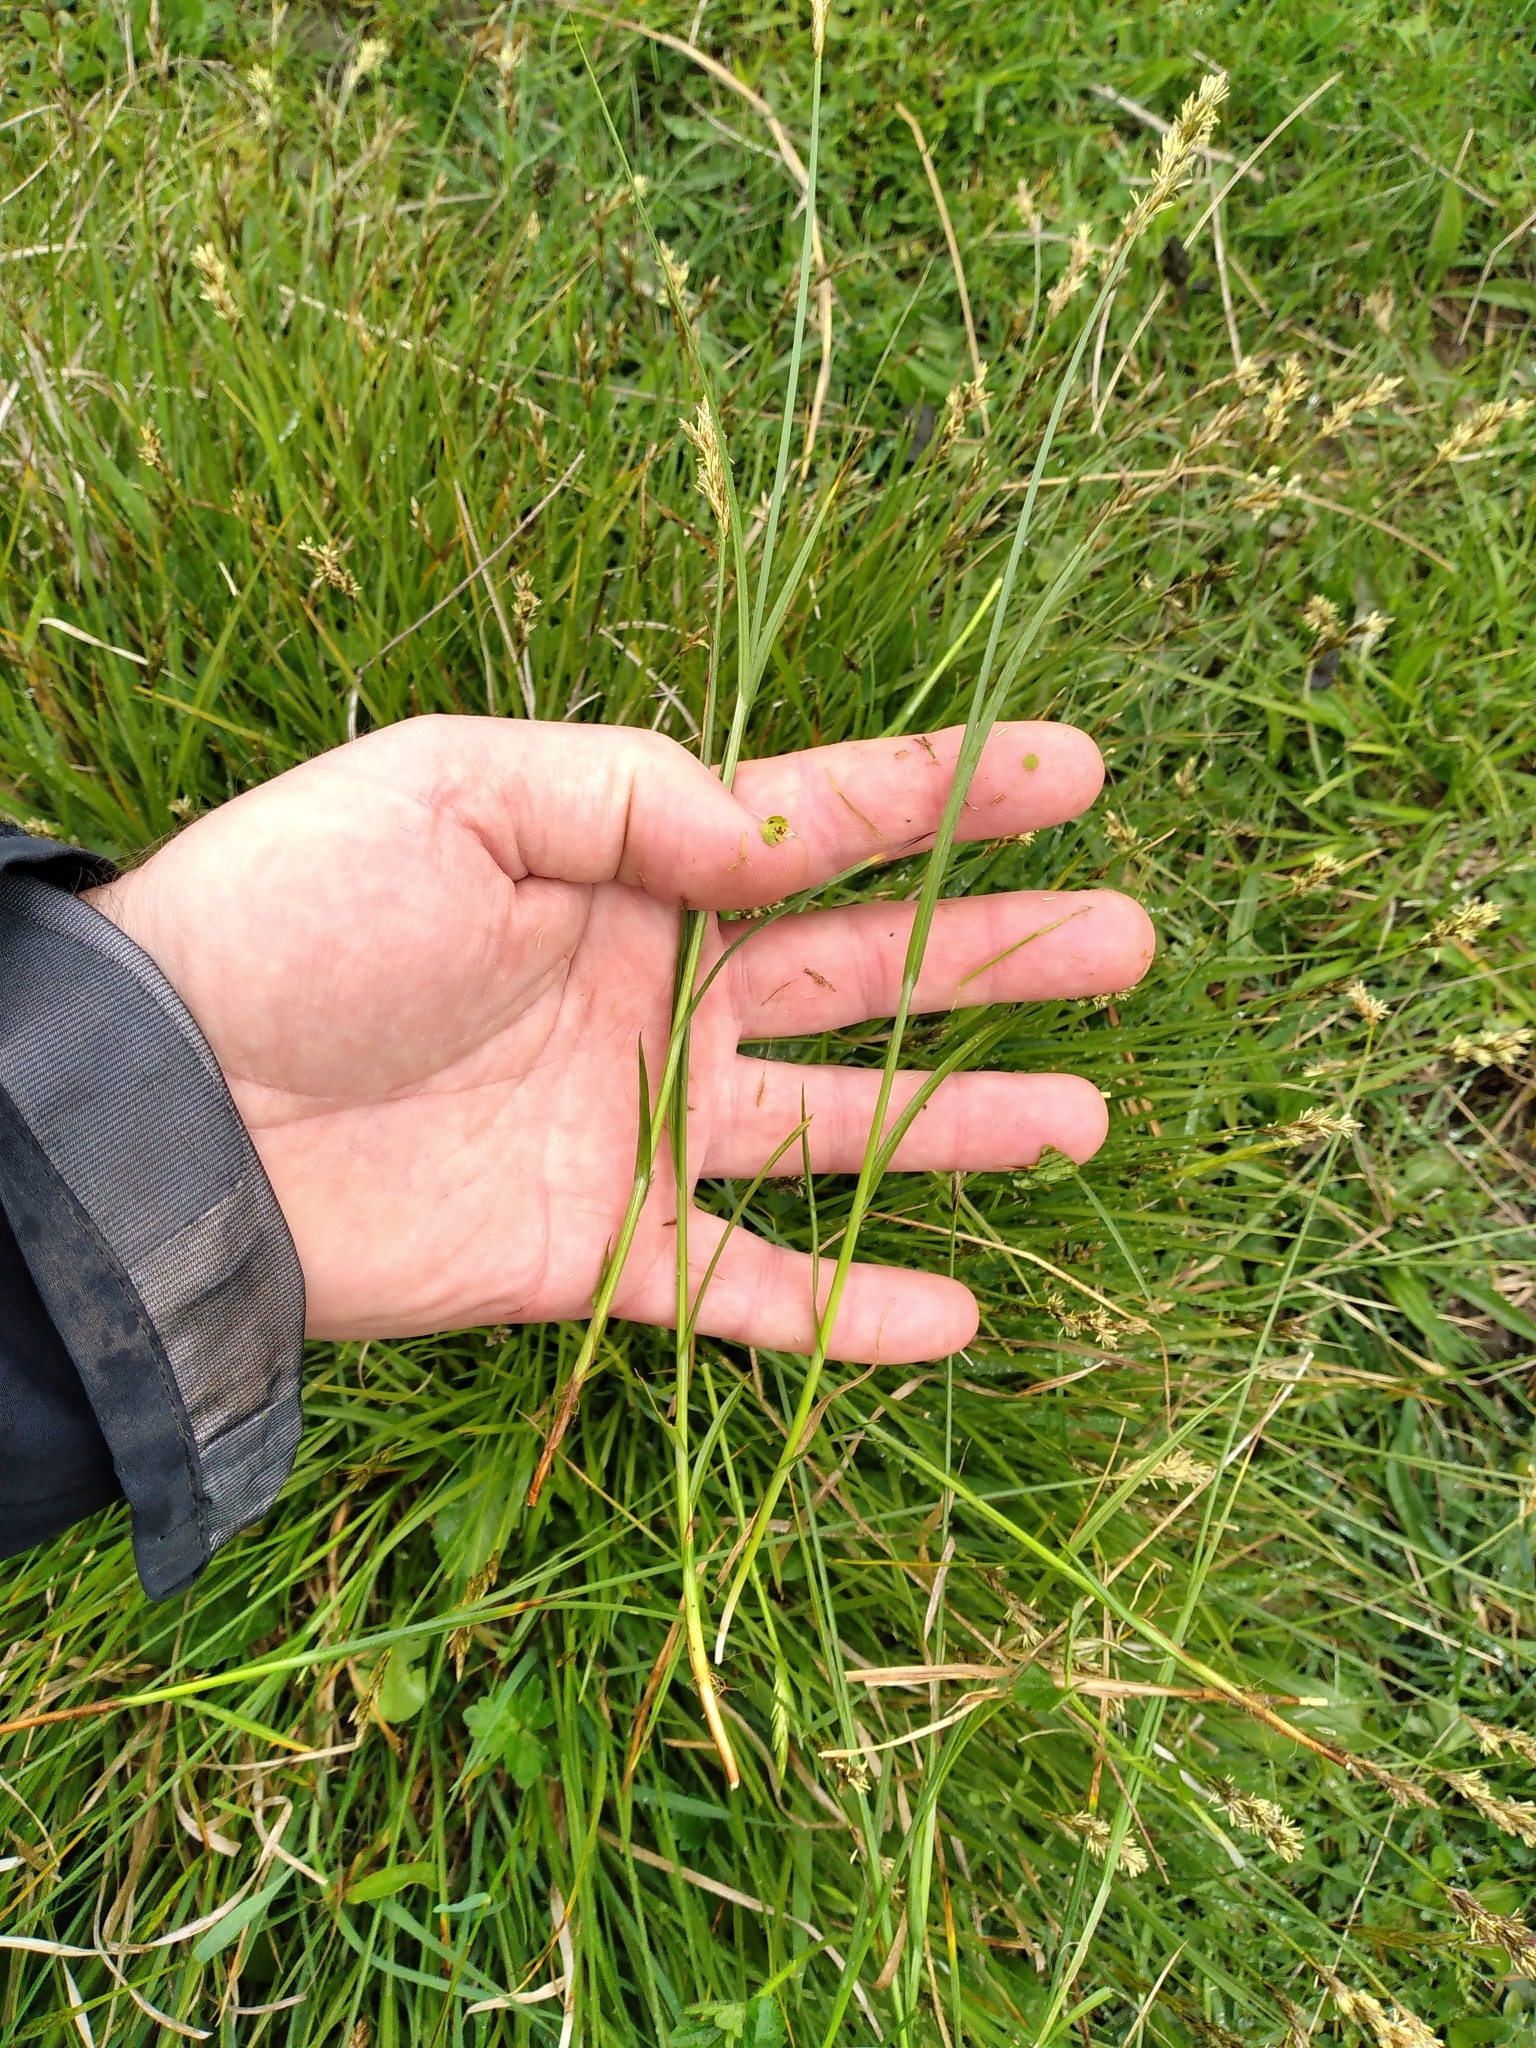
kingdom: Plantae
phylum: Tracheophyta
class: Liliopsida
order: Poales
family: Cyperaceae
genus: Carex
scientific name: Carex leporina
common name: Oval sedge
